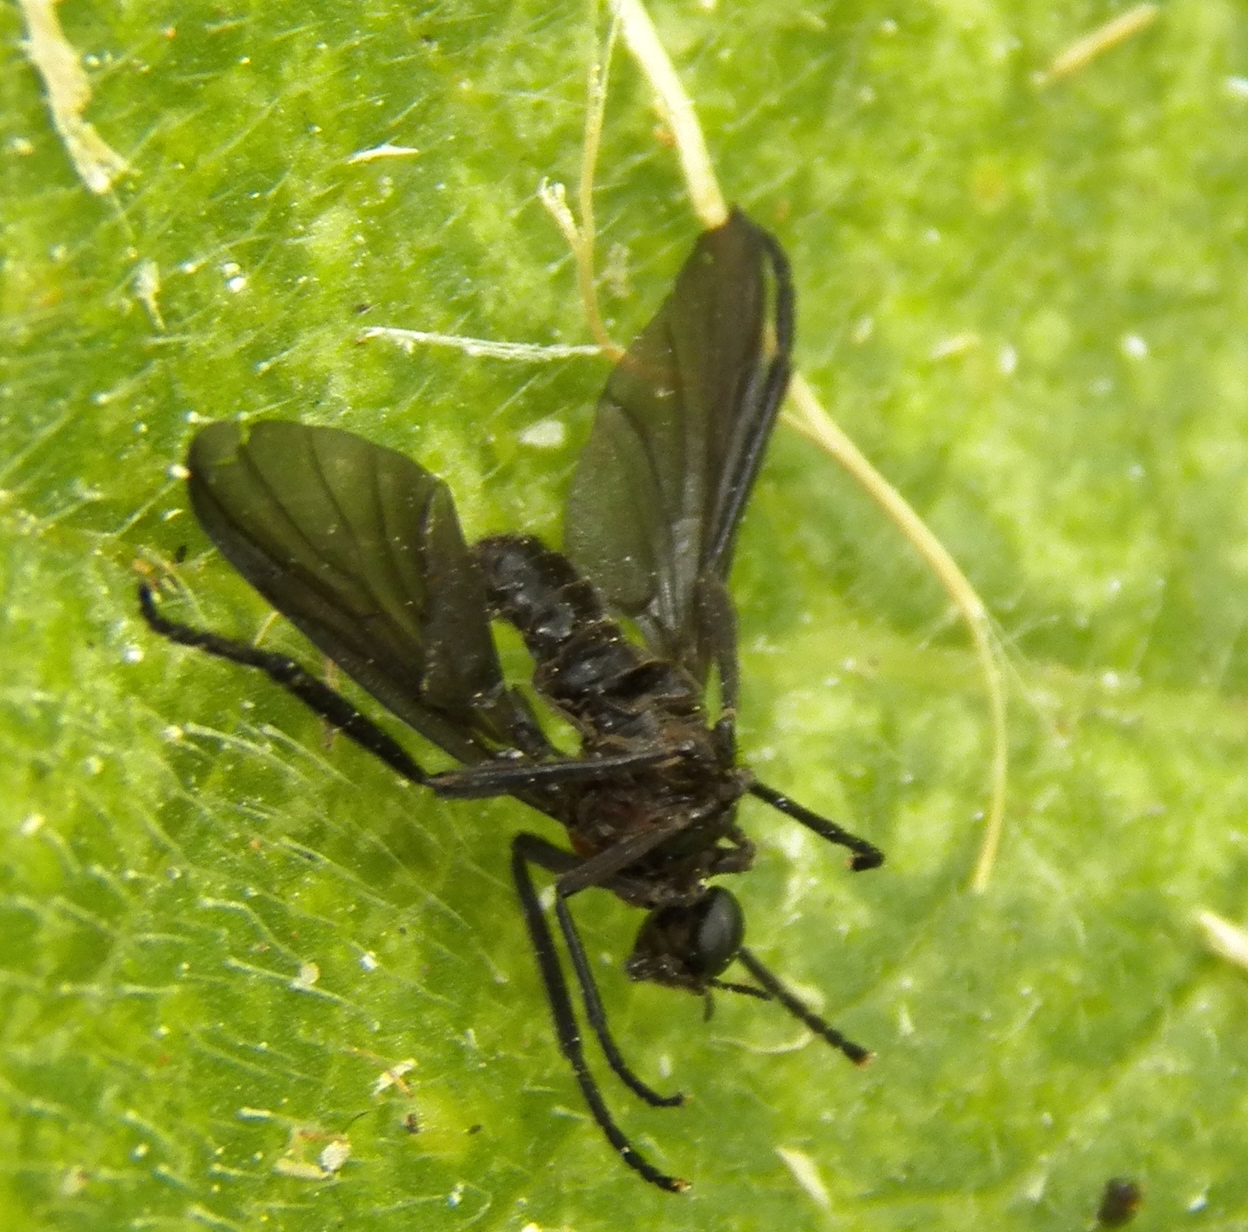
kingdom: Animalia
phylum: Arthropoda
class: Insecta
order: Diptera
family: Bibionidae
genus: Plecia
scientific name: Plecia nearctica
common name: March fly
